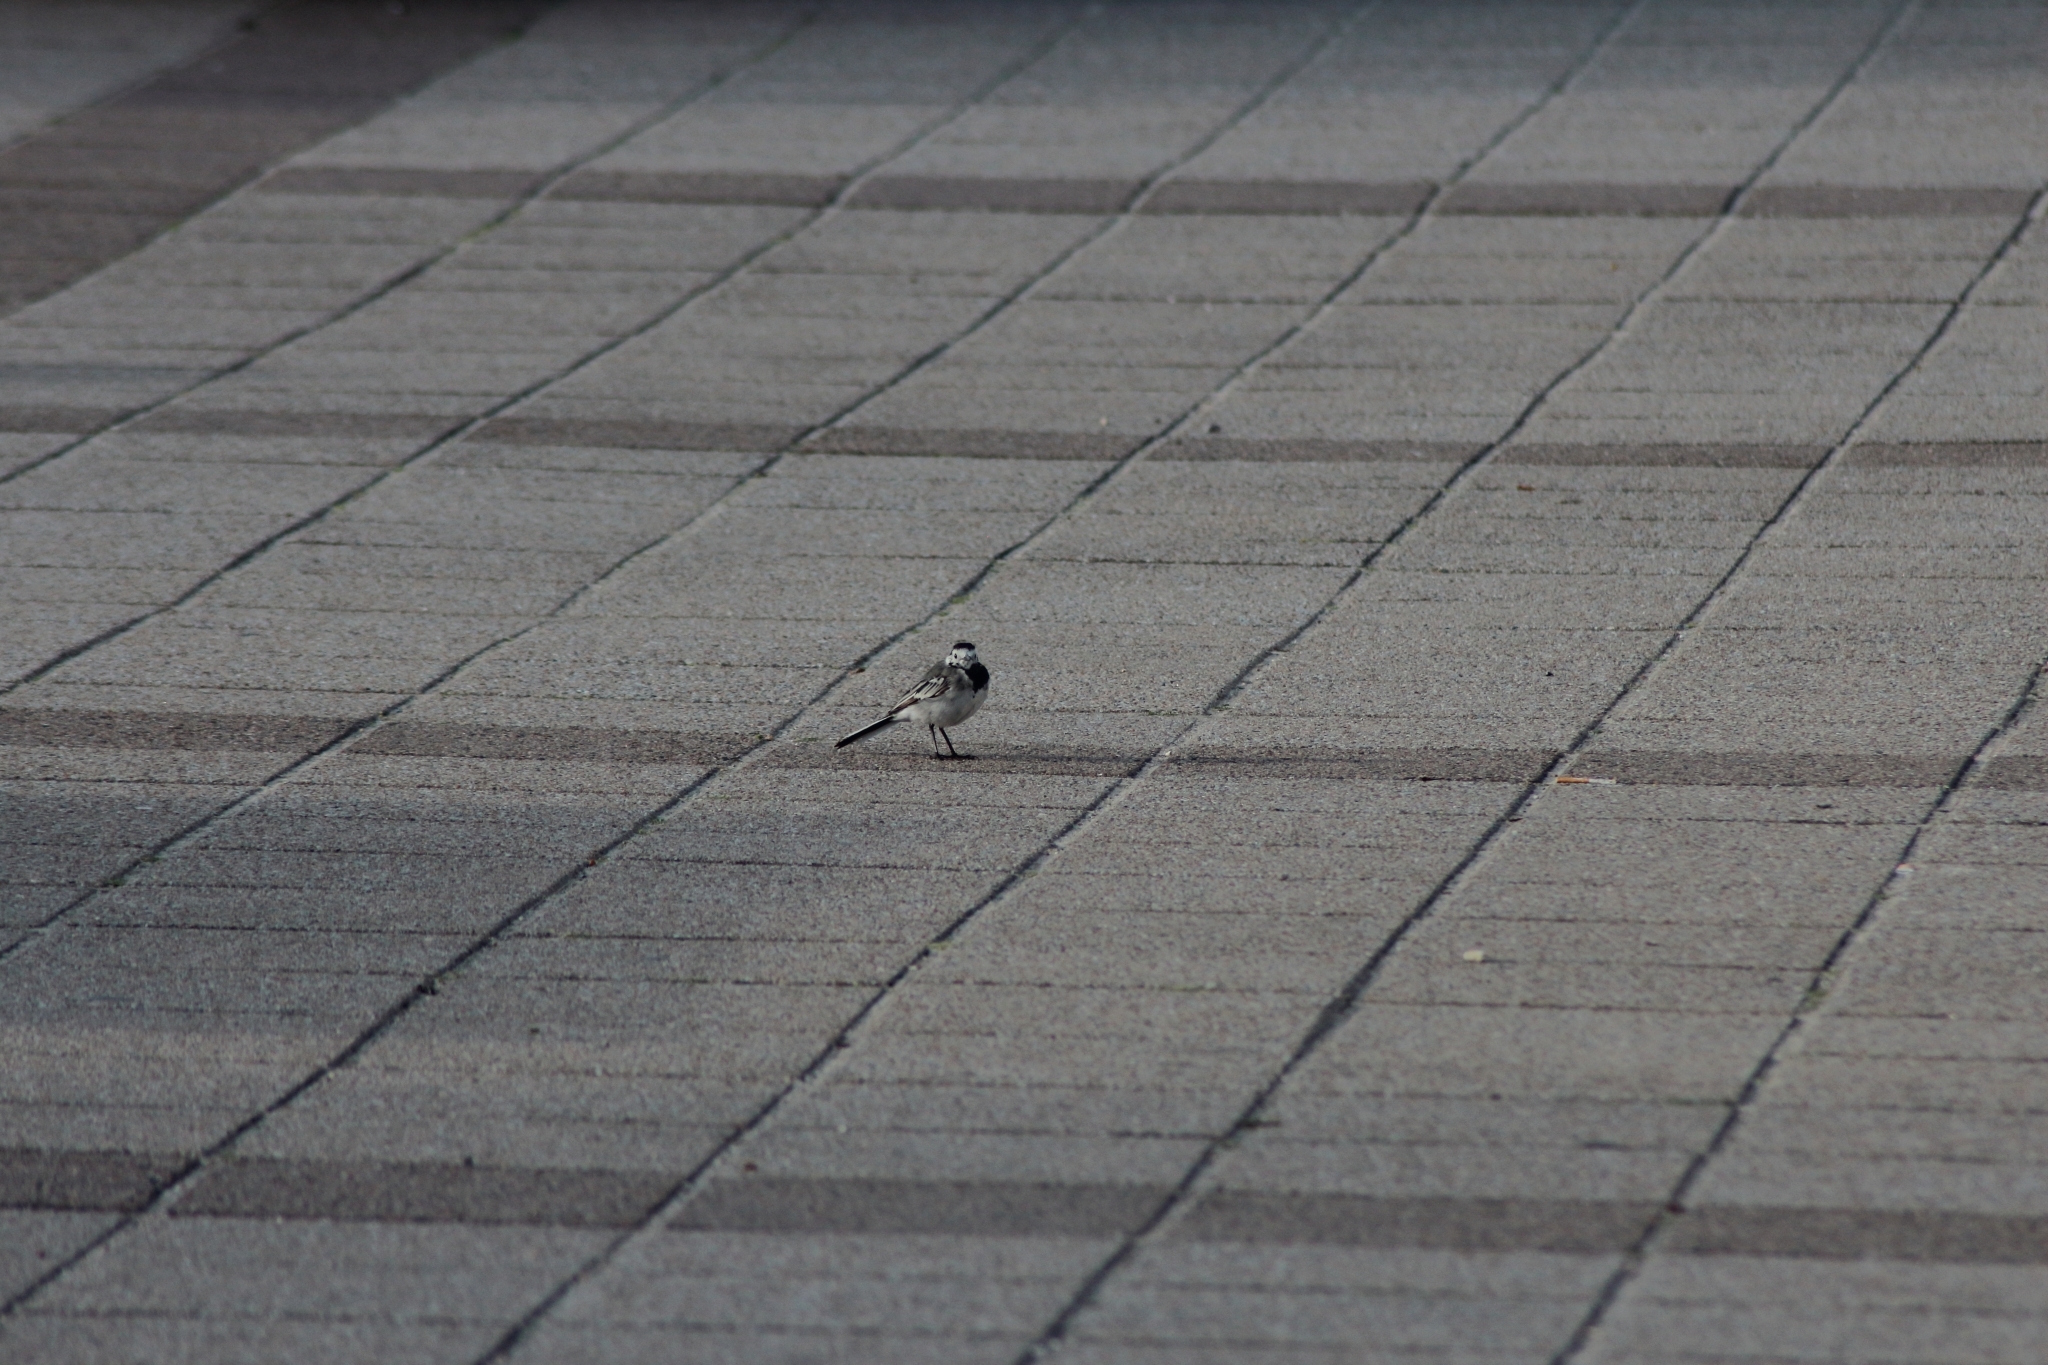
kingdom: Animalia
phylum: Chordata
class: Aves
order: Passeriformes
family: Motacillidae
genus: Motacilla
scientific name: Motacilla alba
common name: White wagtail
